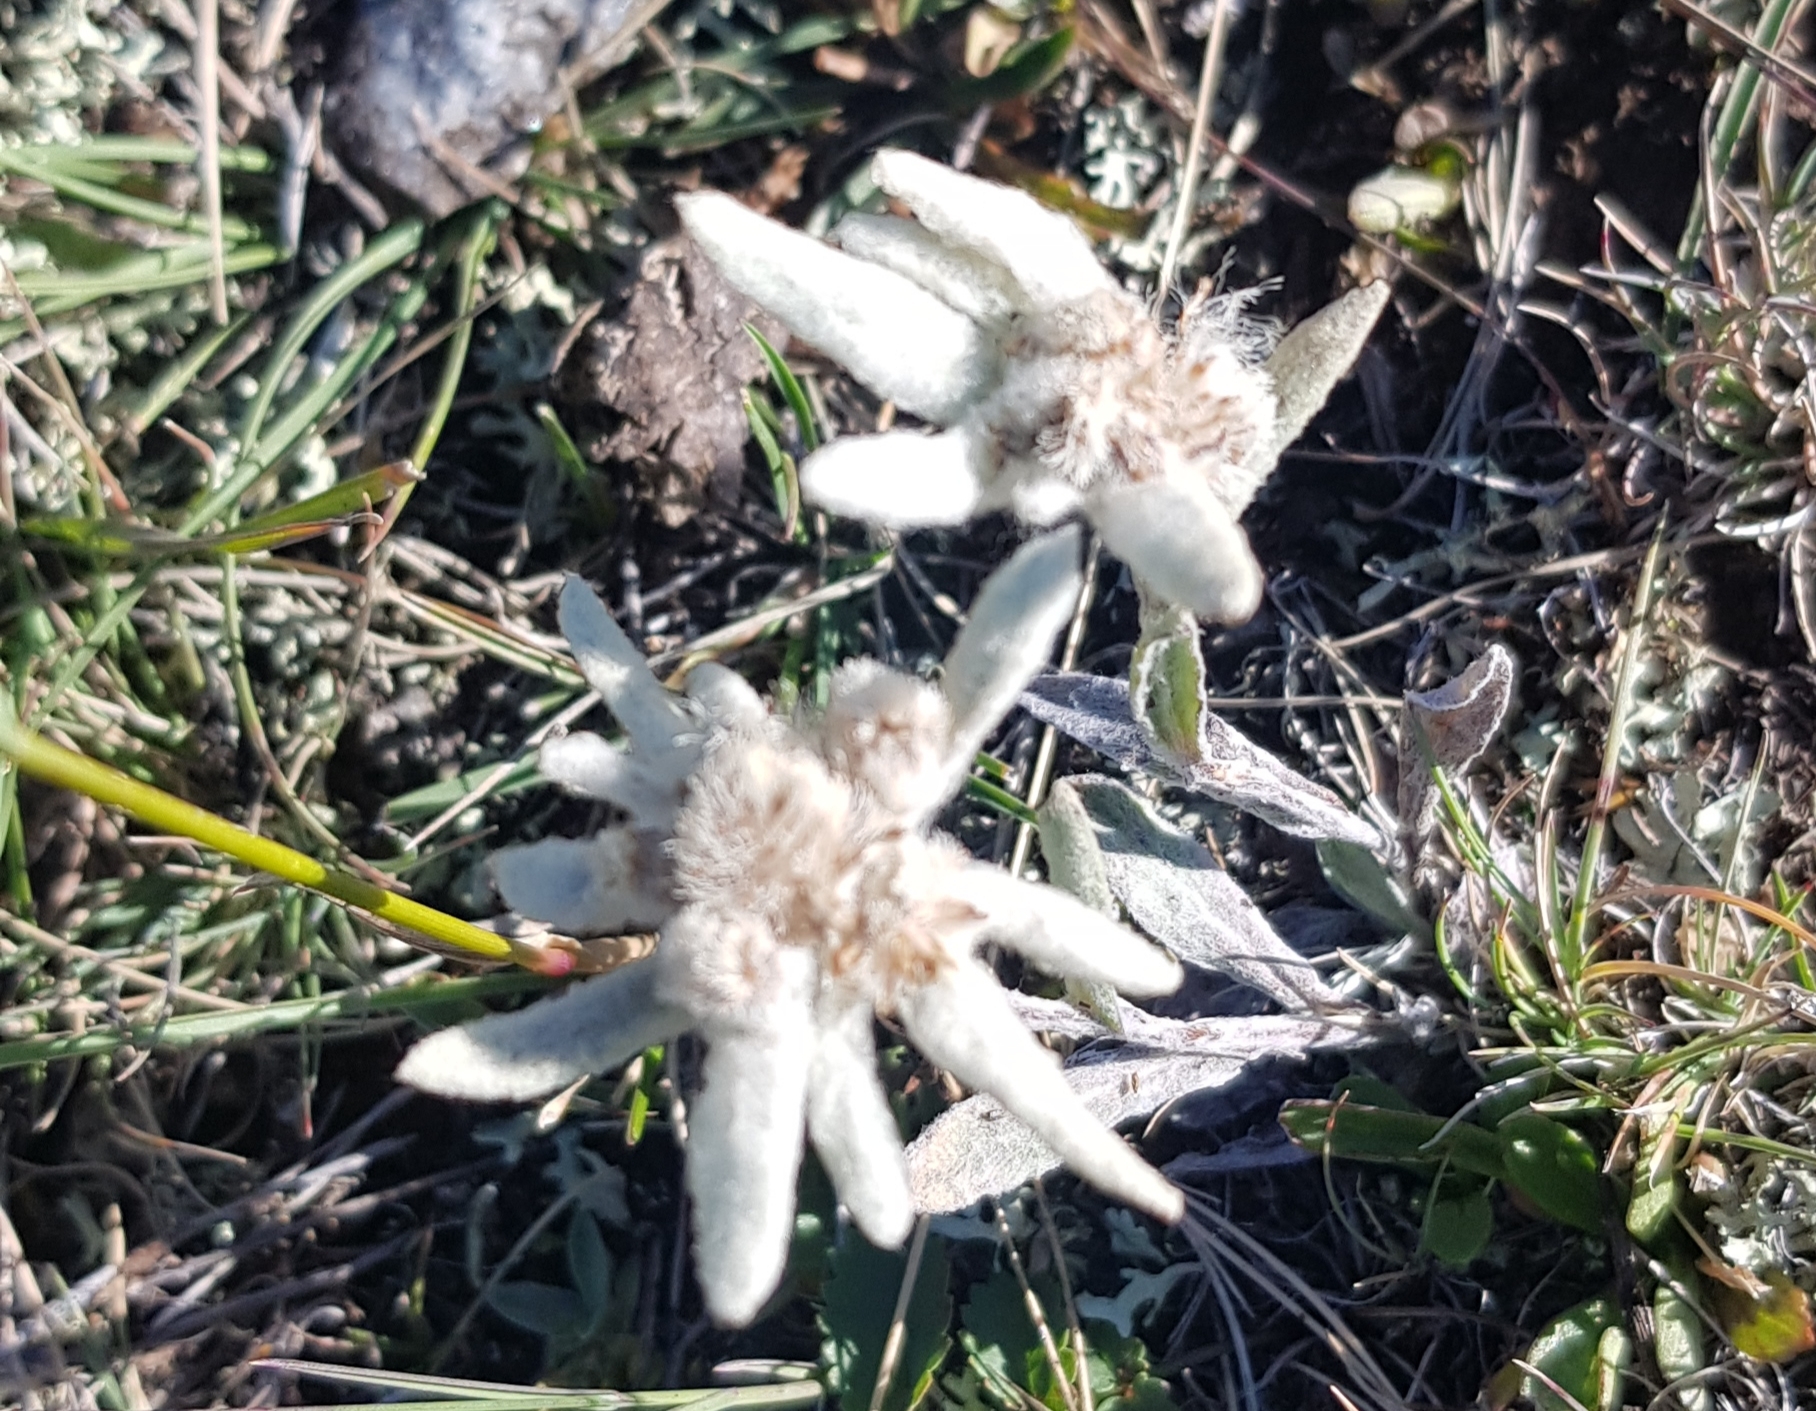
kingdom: Plantae
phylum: Tracheophyta
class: Magnoliopsida
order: Asterales
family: Asteraceae
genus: Leontopodium
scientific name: Leontopodium leontopodinum
